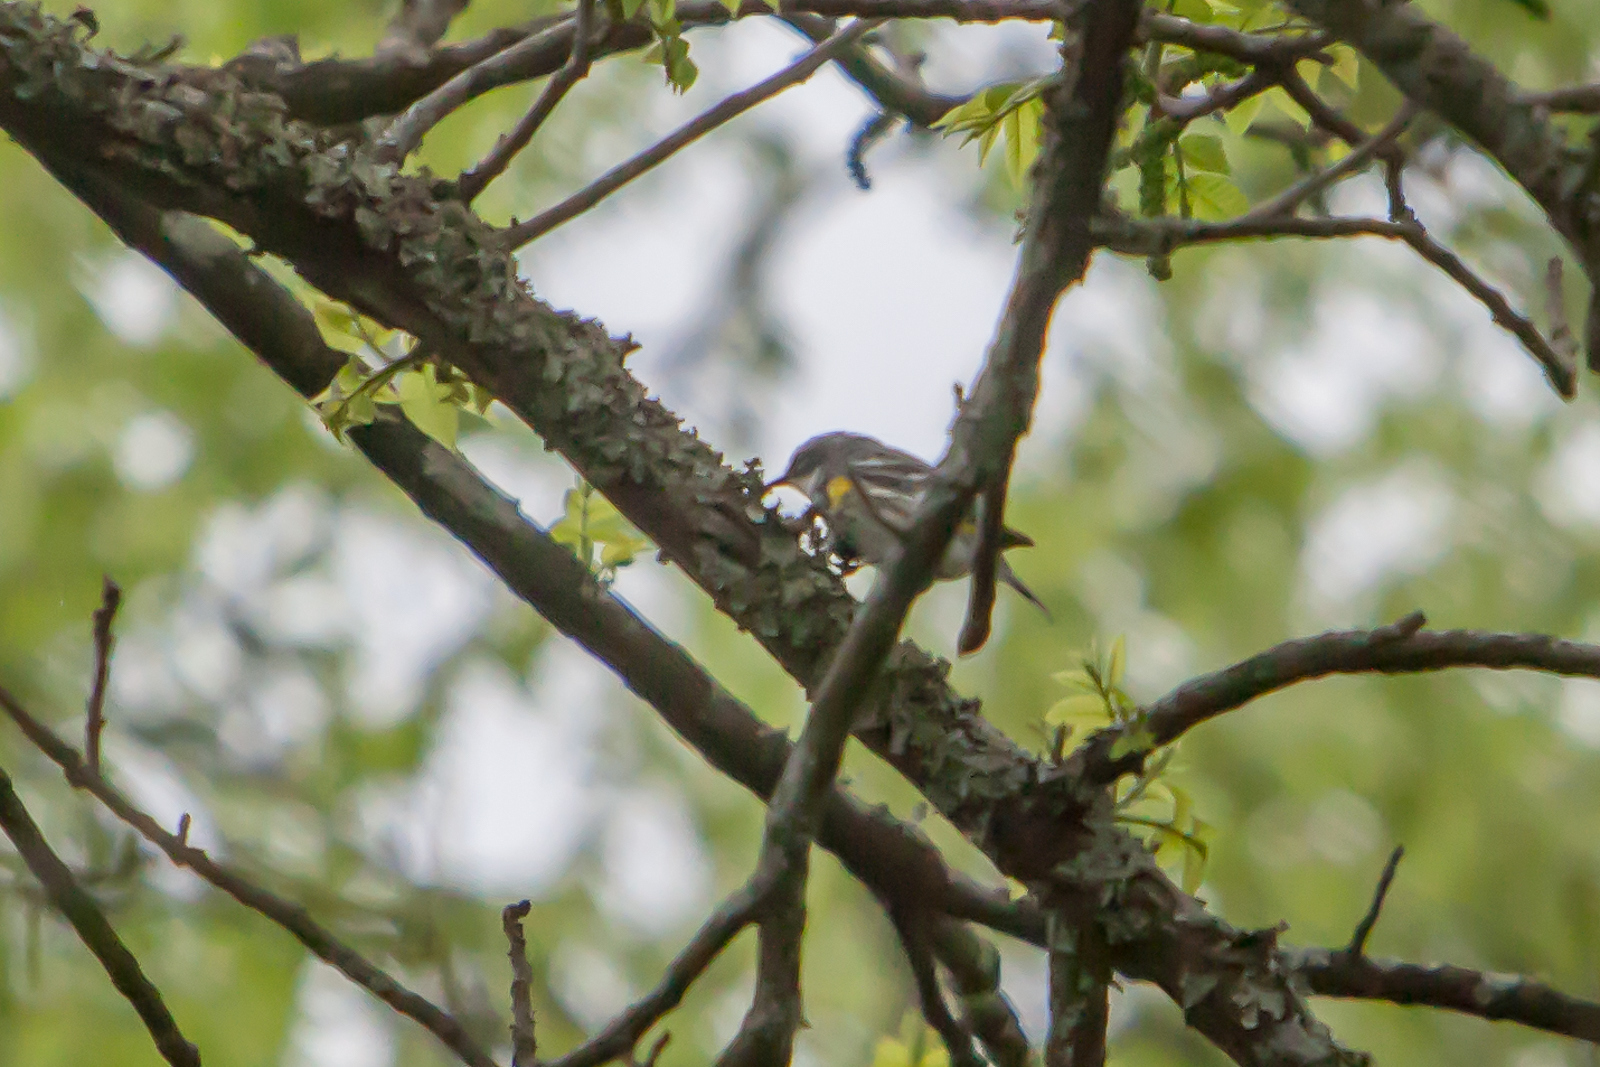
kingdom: Animalia
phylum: Chordata
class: Aves
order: Passeriformes
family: Parulidae
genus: Setophaga
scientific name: Setophaga coronata
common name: Myrtle warbler
